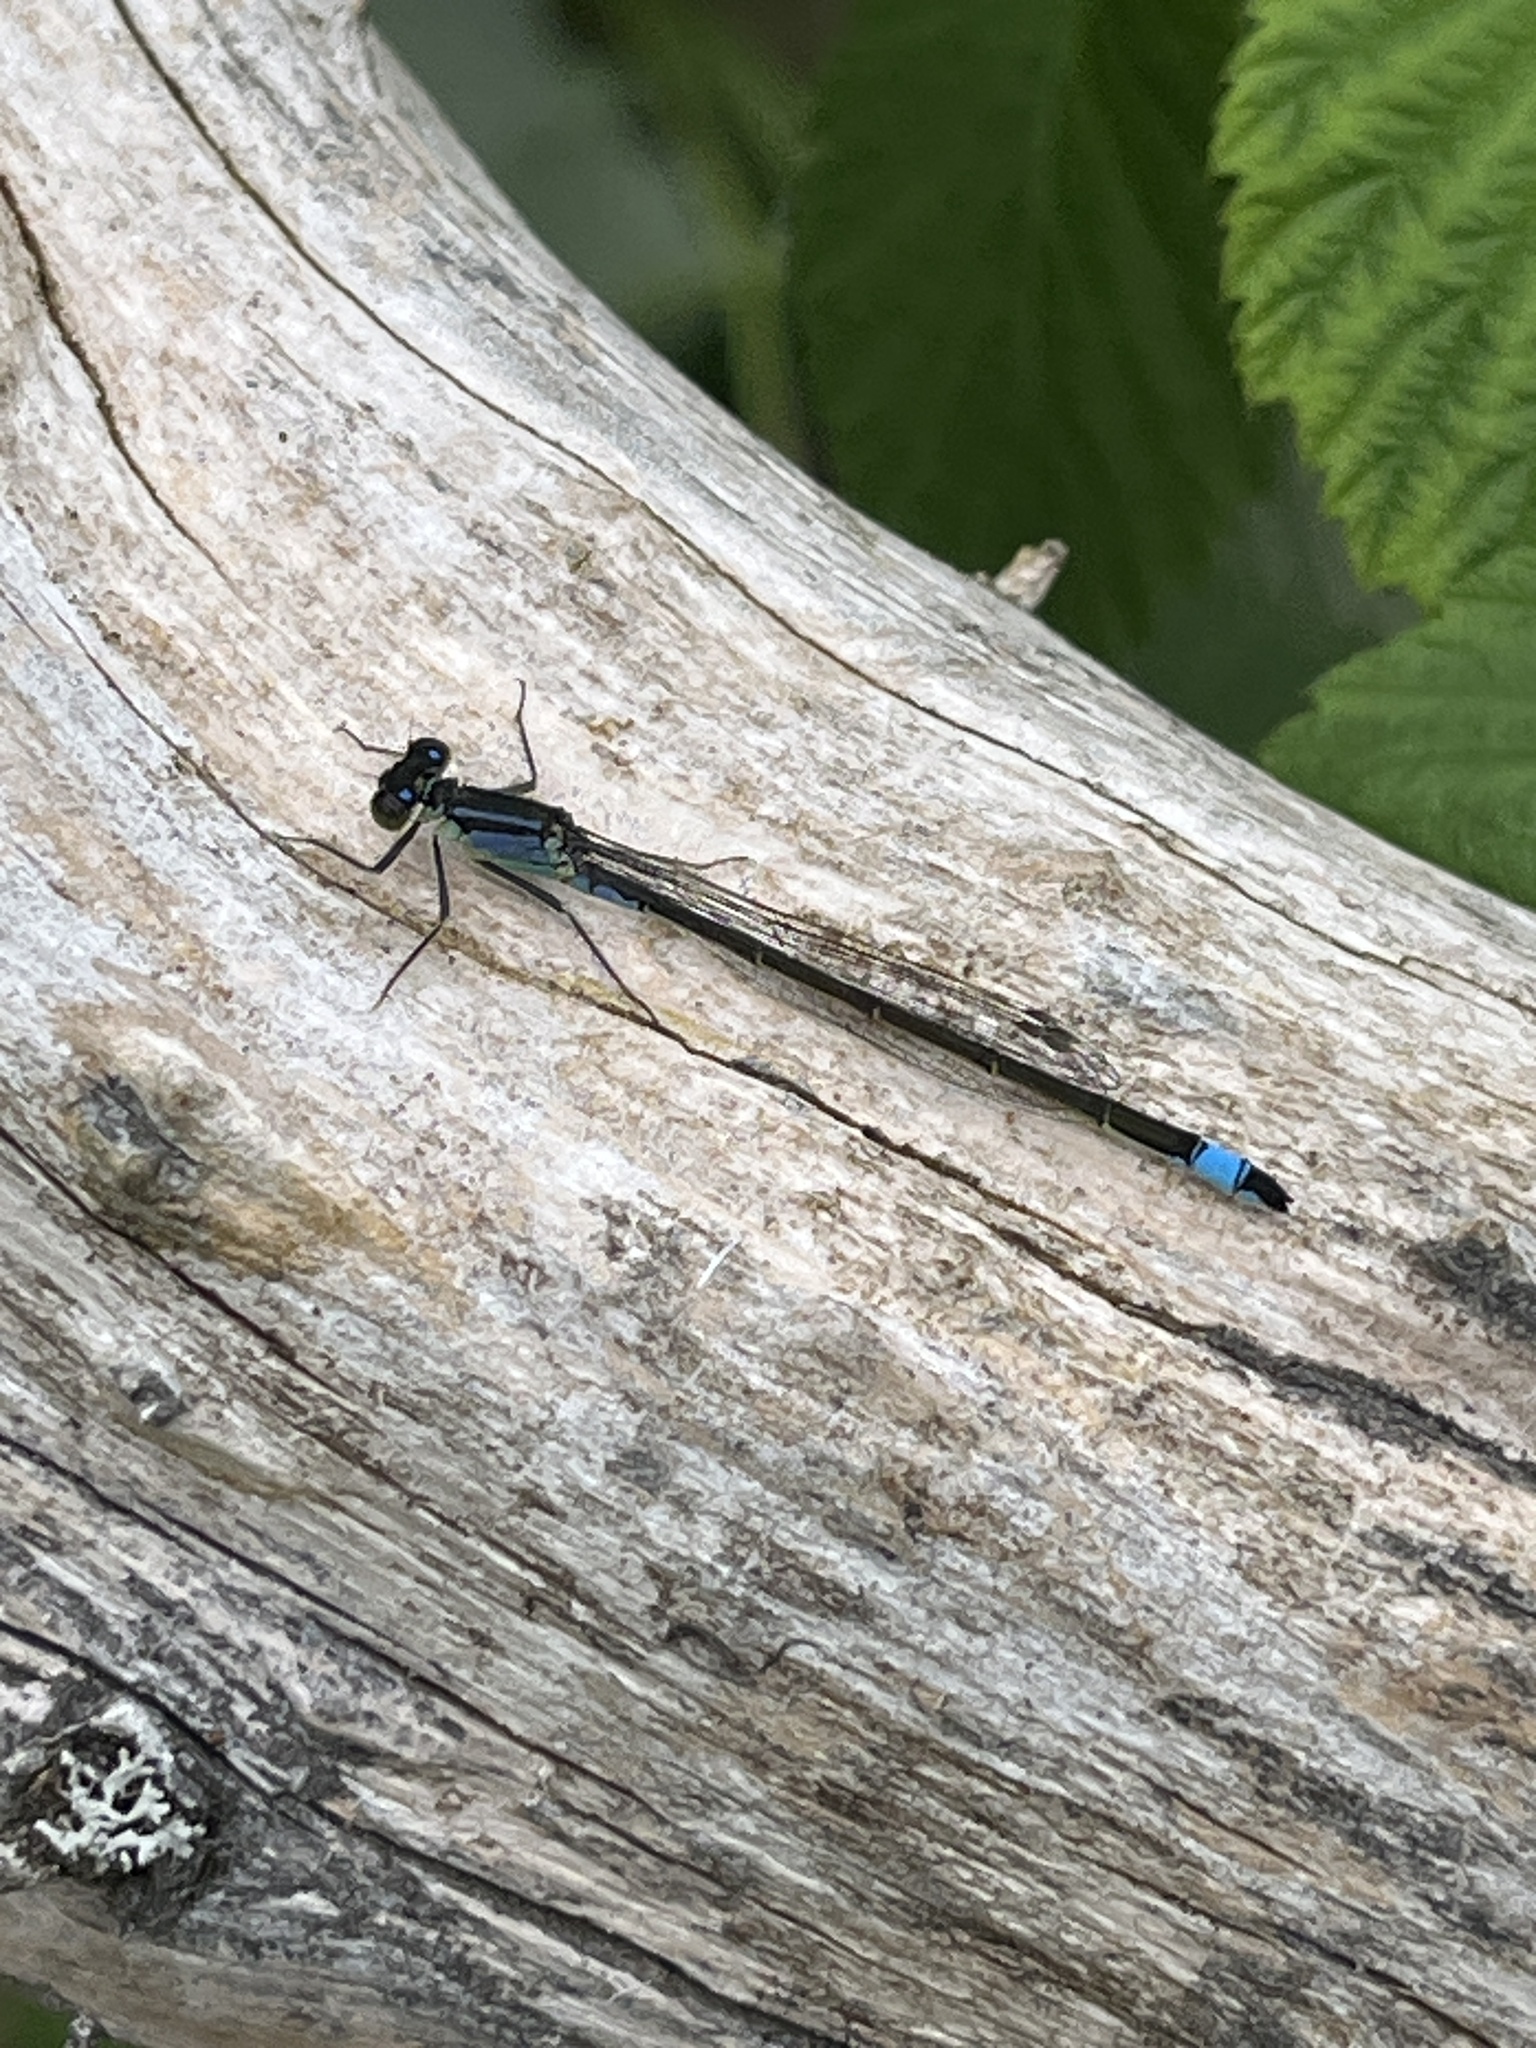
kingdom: Animalia
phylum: Arthropoda
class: Insecta
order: Odonata
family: Coenagrionidae
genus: Ischnura
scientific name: Ischnura elegans
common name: Blue-tailed damselfly
